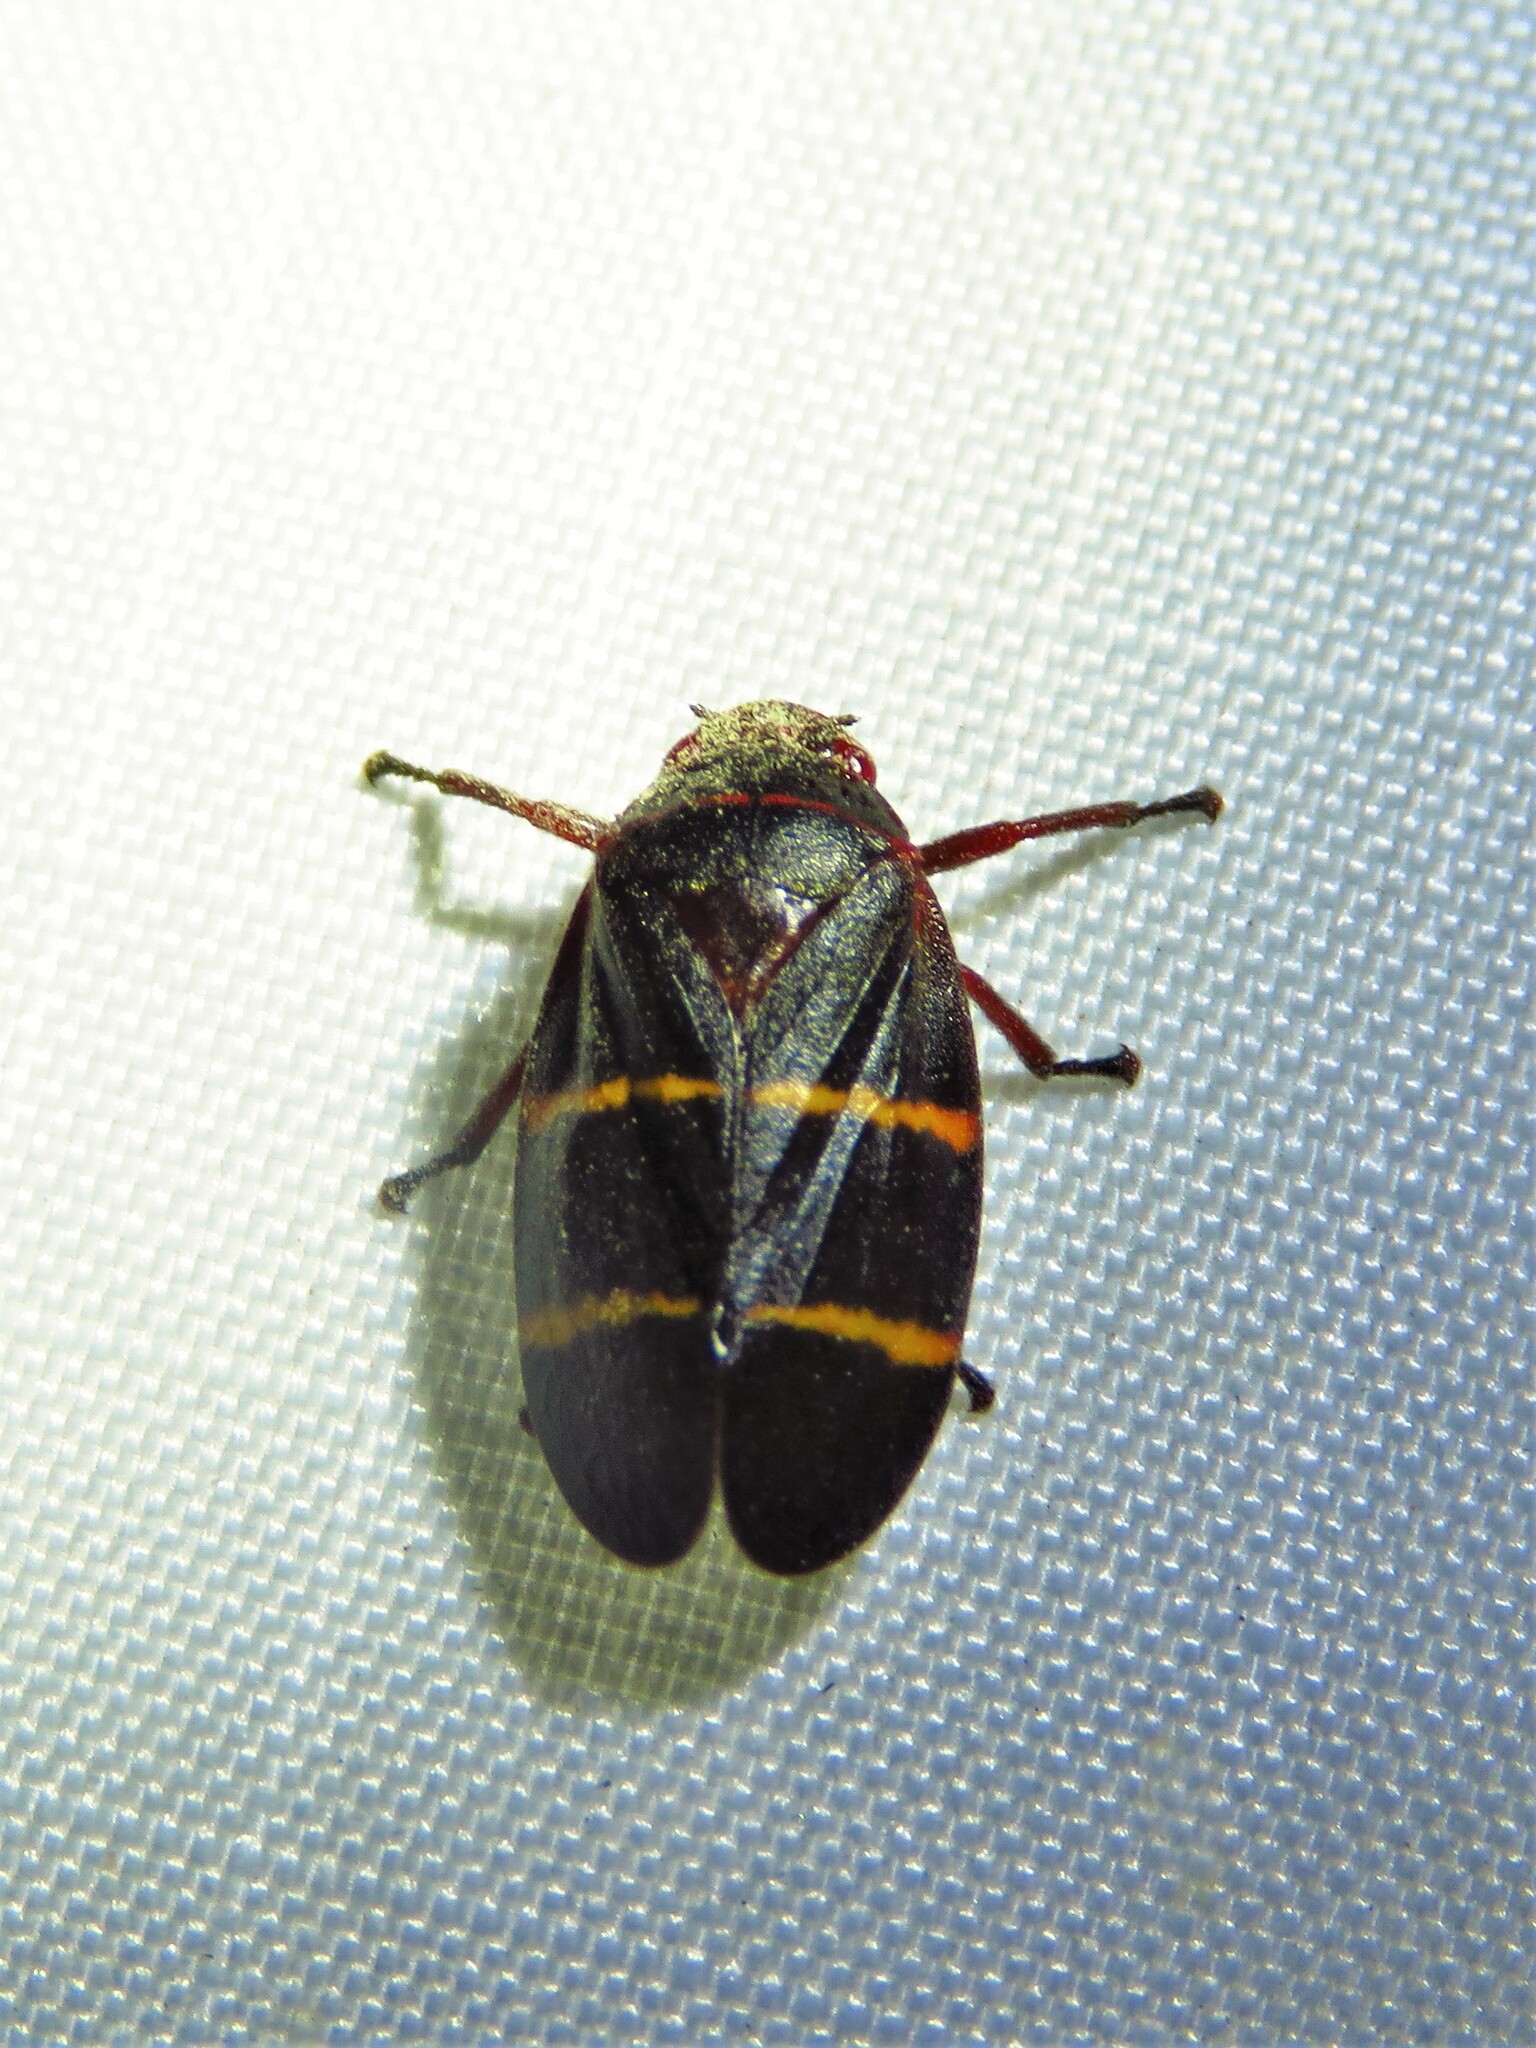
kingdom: Animalia
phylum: Arthropoda
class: Insecta
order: Hemiptera
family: Cercopidae
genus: Prosapia
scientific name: Prosapia bicincta
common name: Twolined spittlebug
